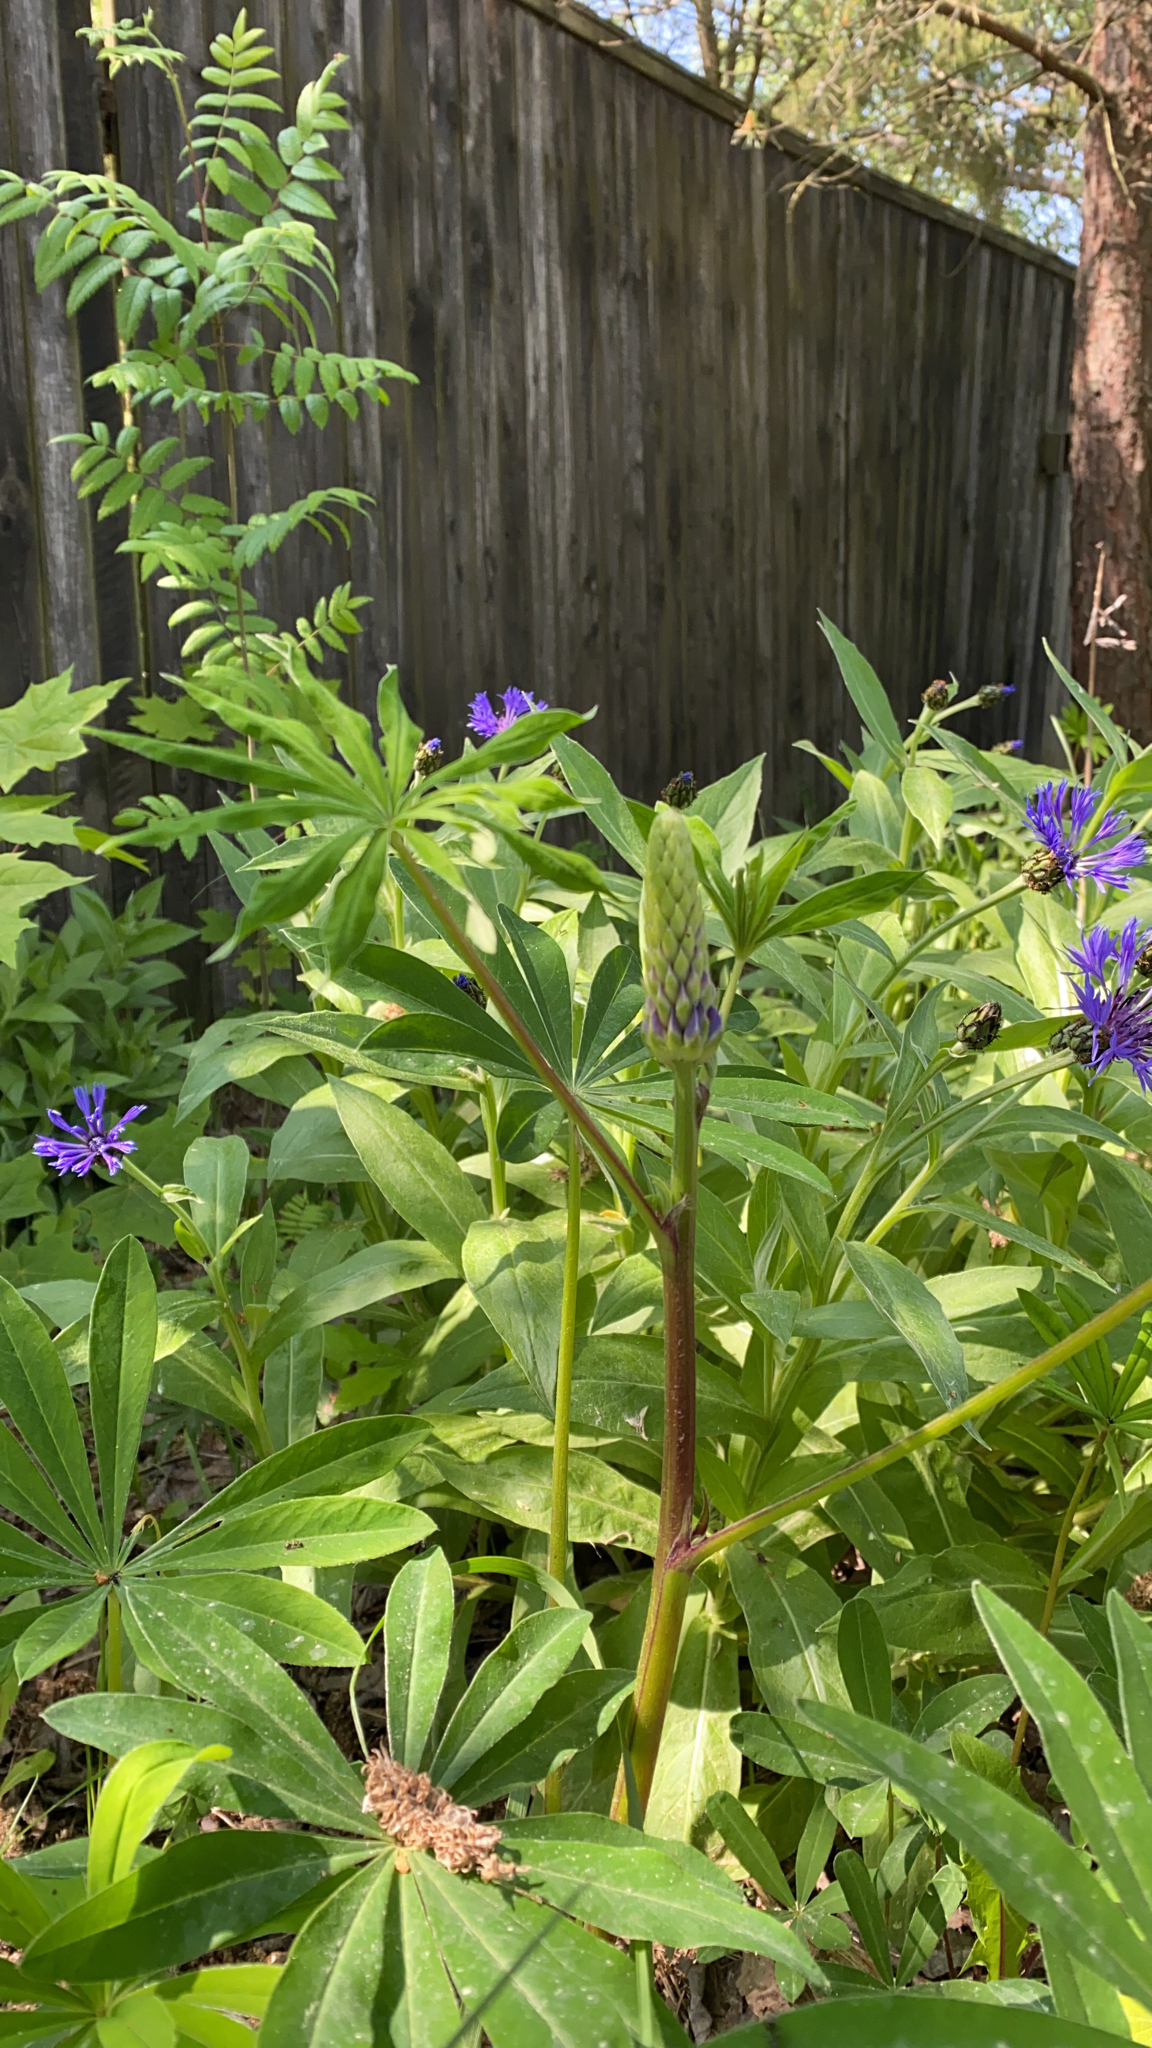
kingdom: Plantae
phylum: Tracheophyta
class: Magnoliopsida
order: Fabales
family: Fabaceae
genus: Lupinus
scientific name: Lupinus polyphyllus
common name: Garden lupin
